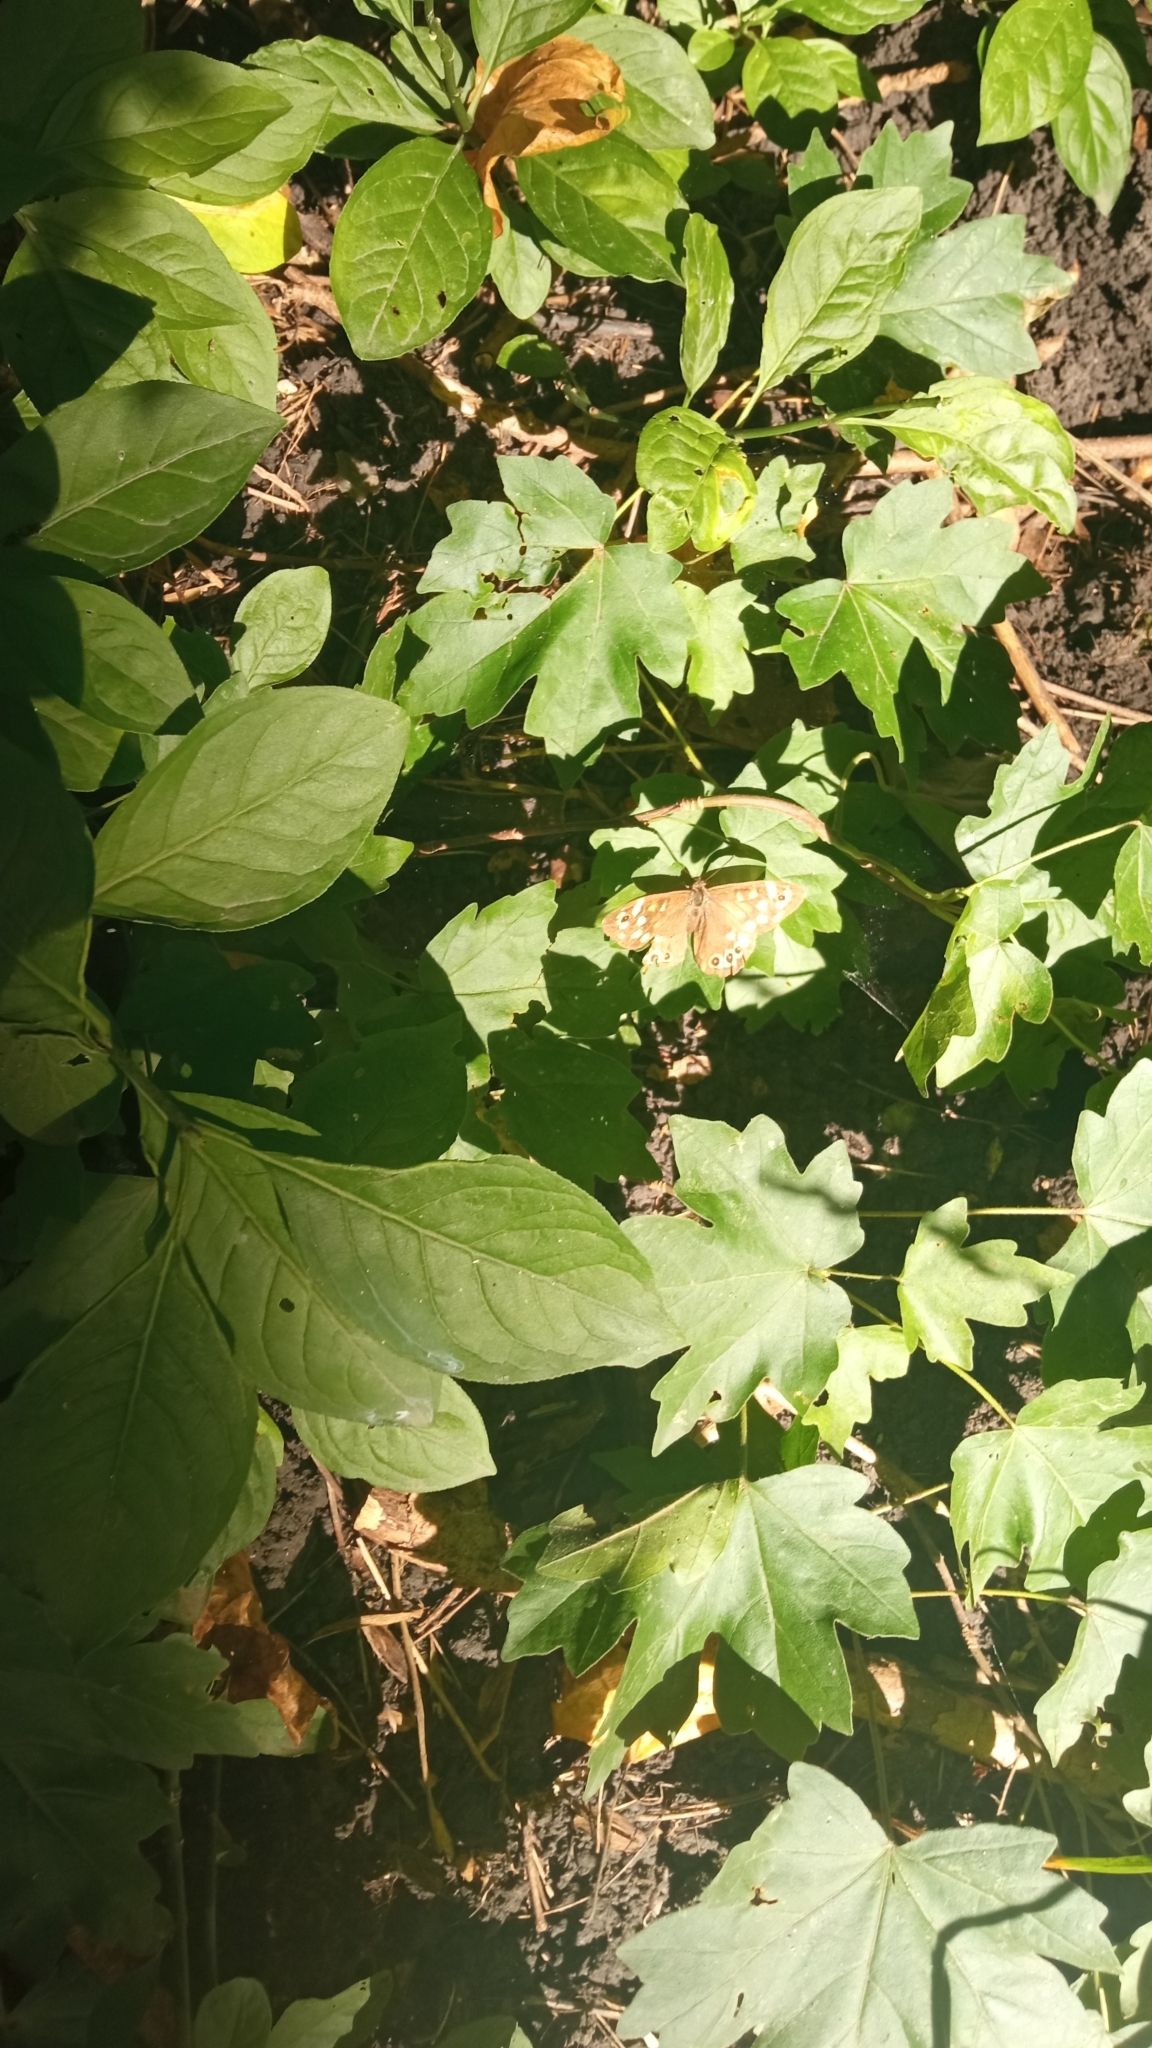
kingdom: Animalia
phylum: Arthropoda
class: Insecta
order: Lepidoptera
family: Nymphalidae
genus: Pararge
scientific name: Pararge aegeria
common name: Speckled wood
